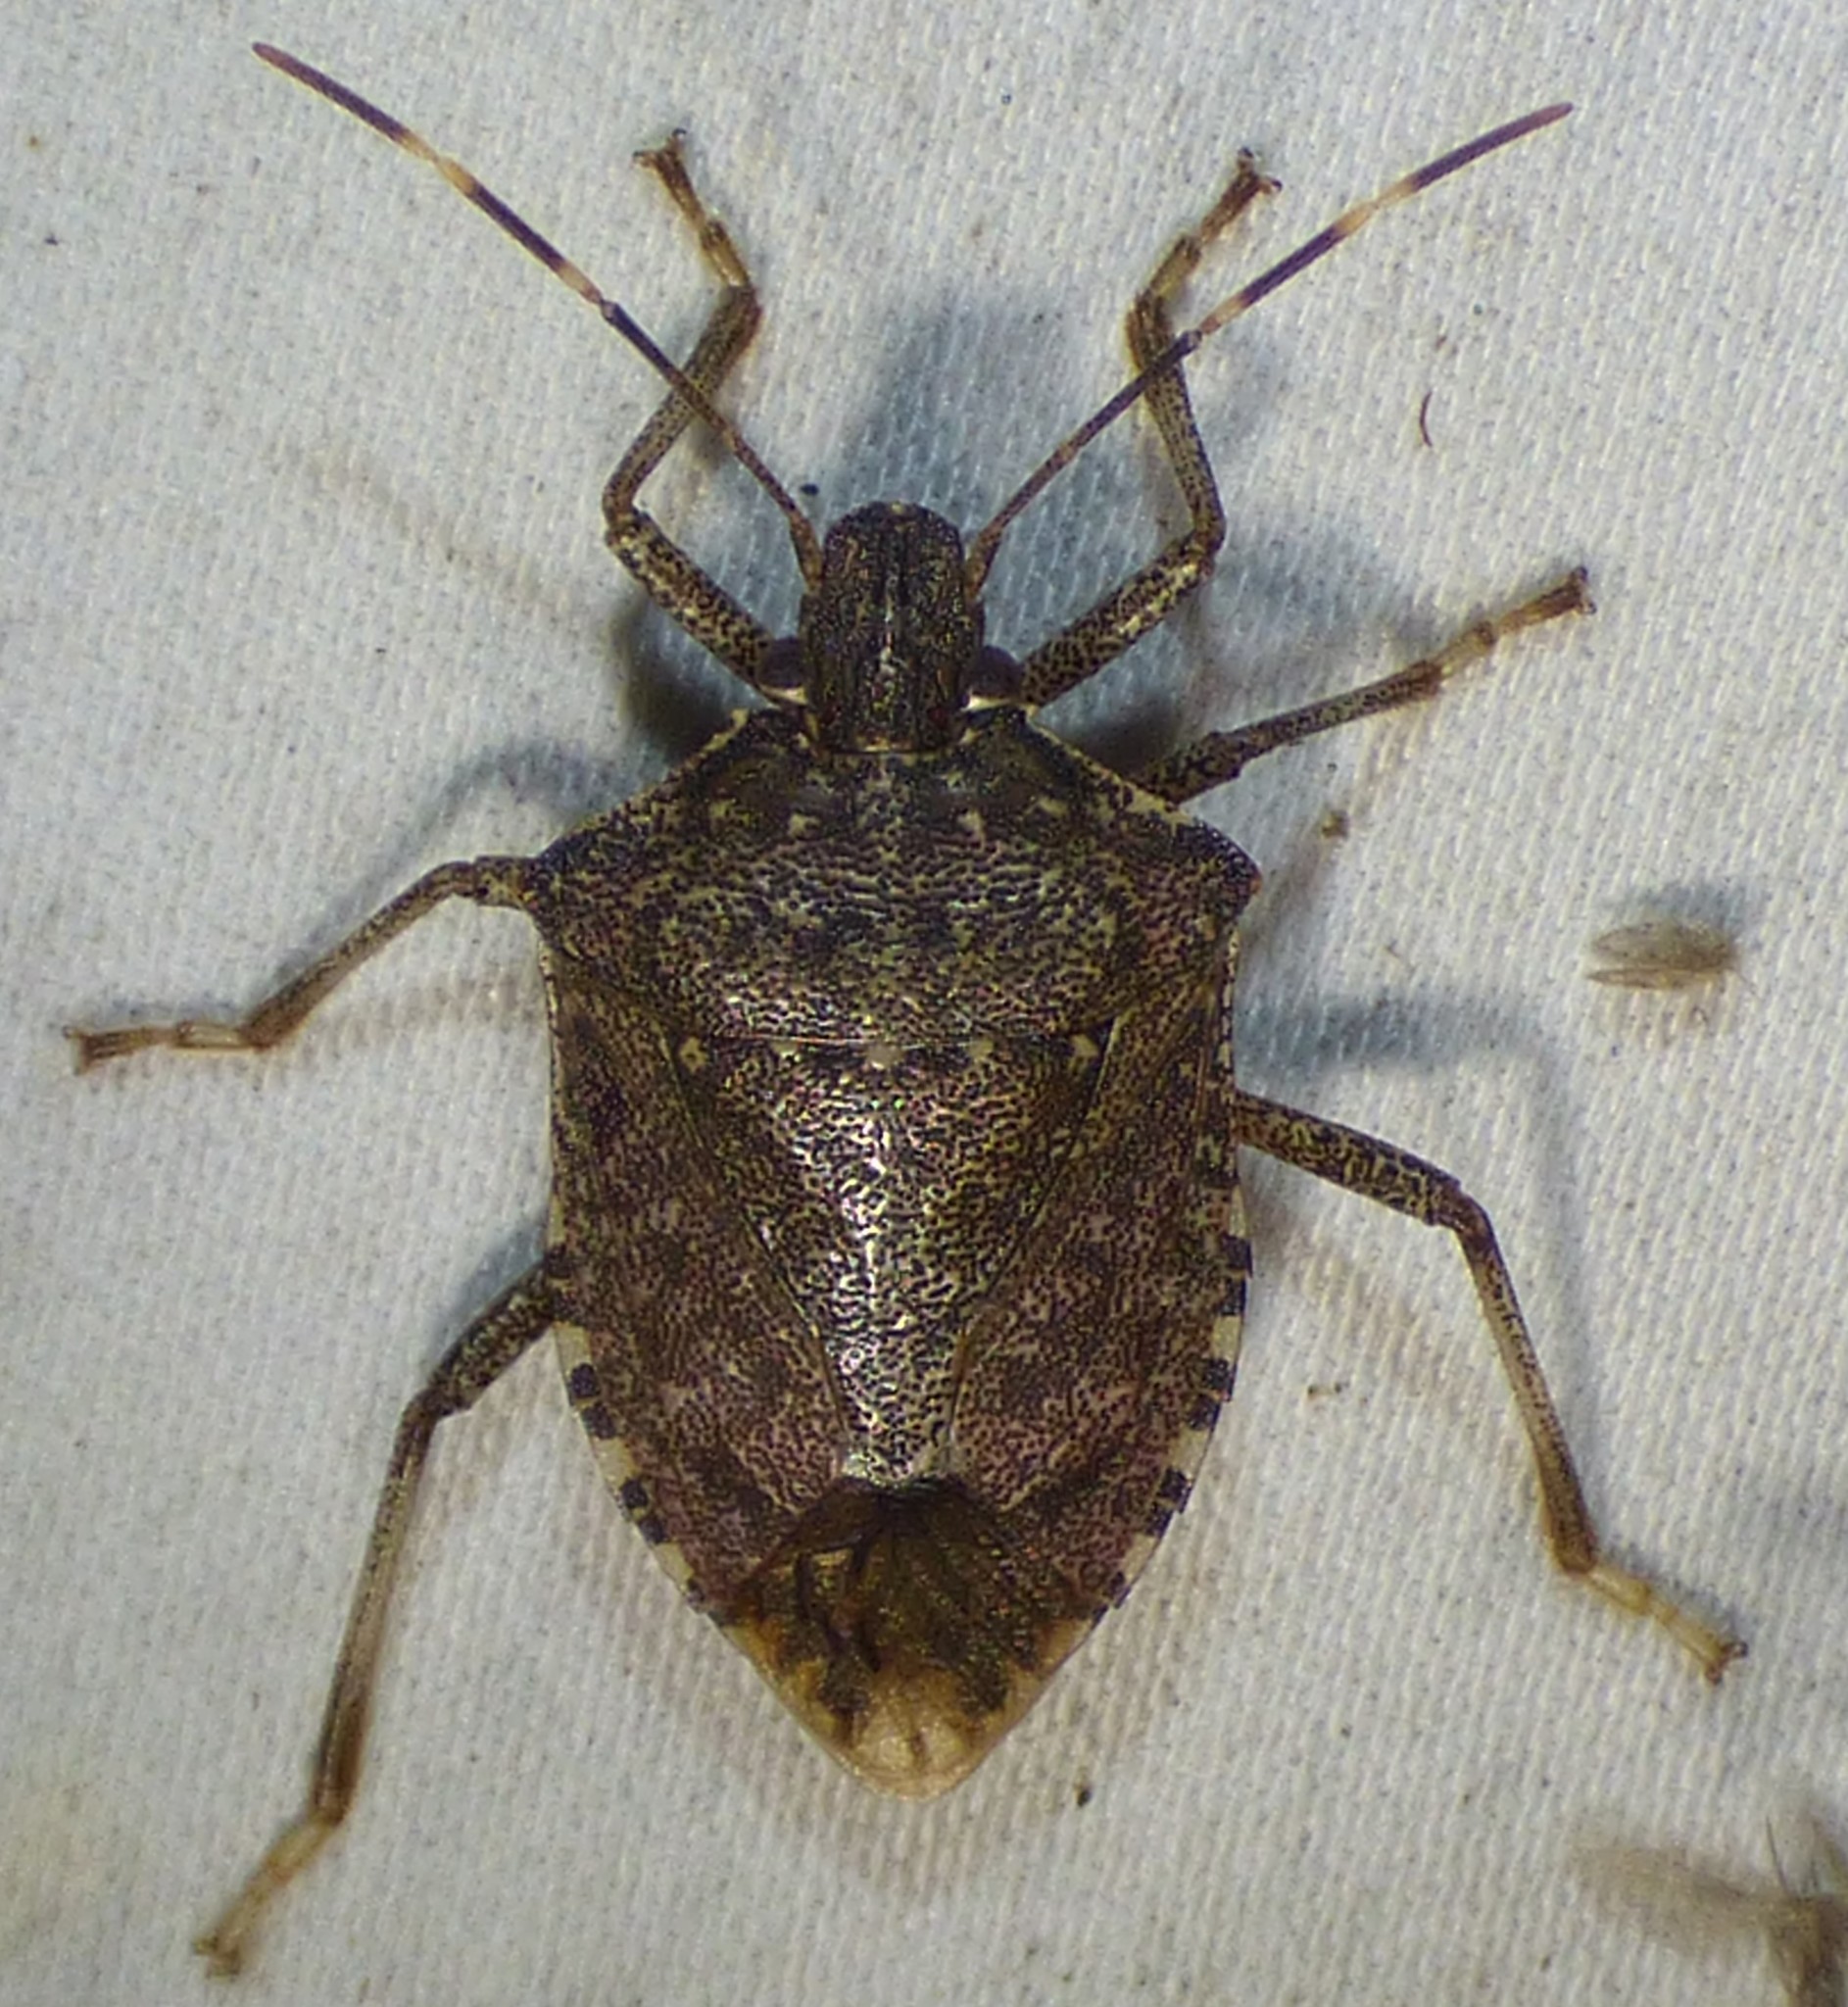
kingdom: Animalia
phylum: Arthropoda
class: Insecta
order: Hemiptera
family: Pentatomidae
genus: Halyomorpha
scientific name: Halyomorpha halys
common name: Brown marmorated stink bug
